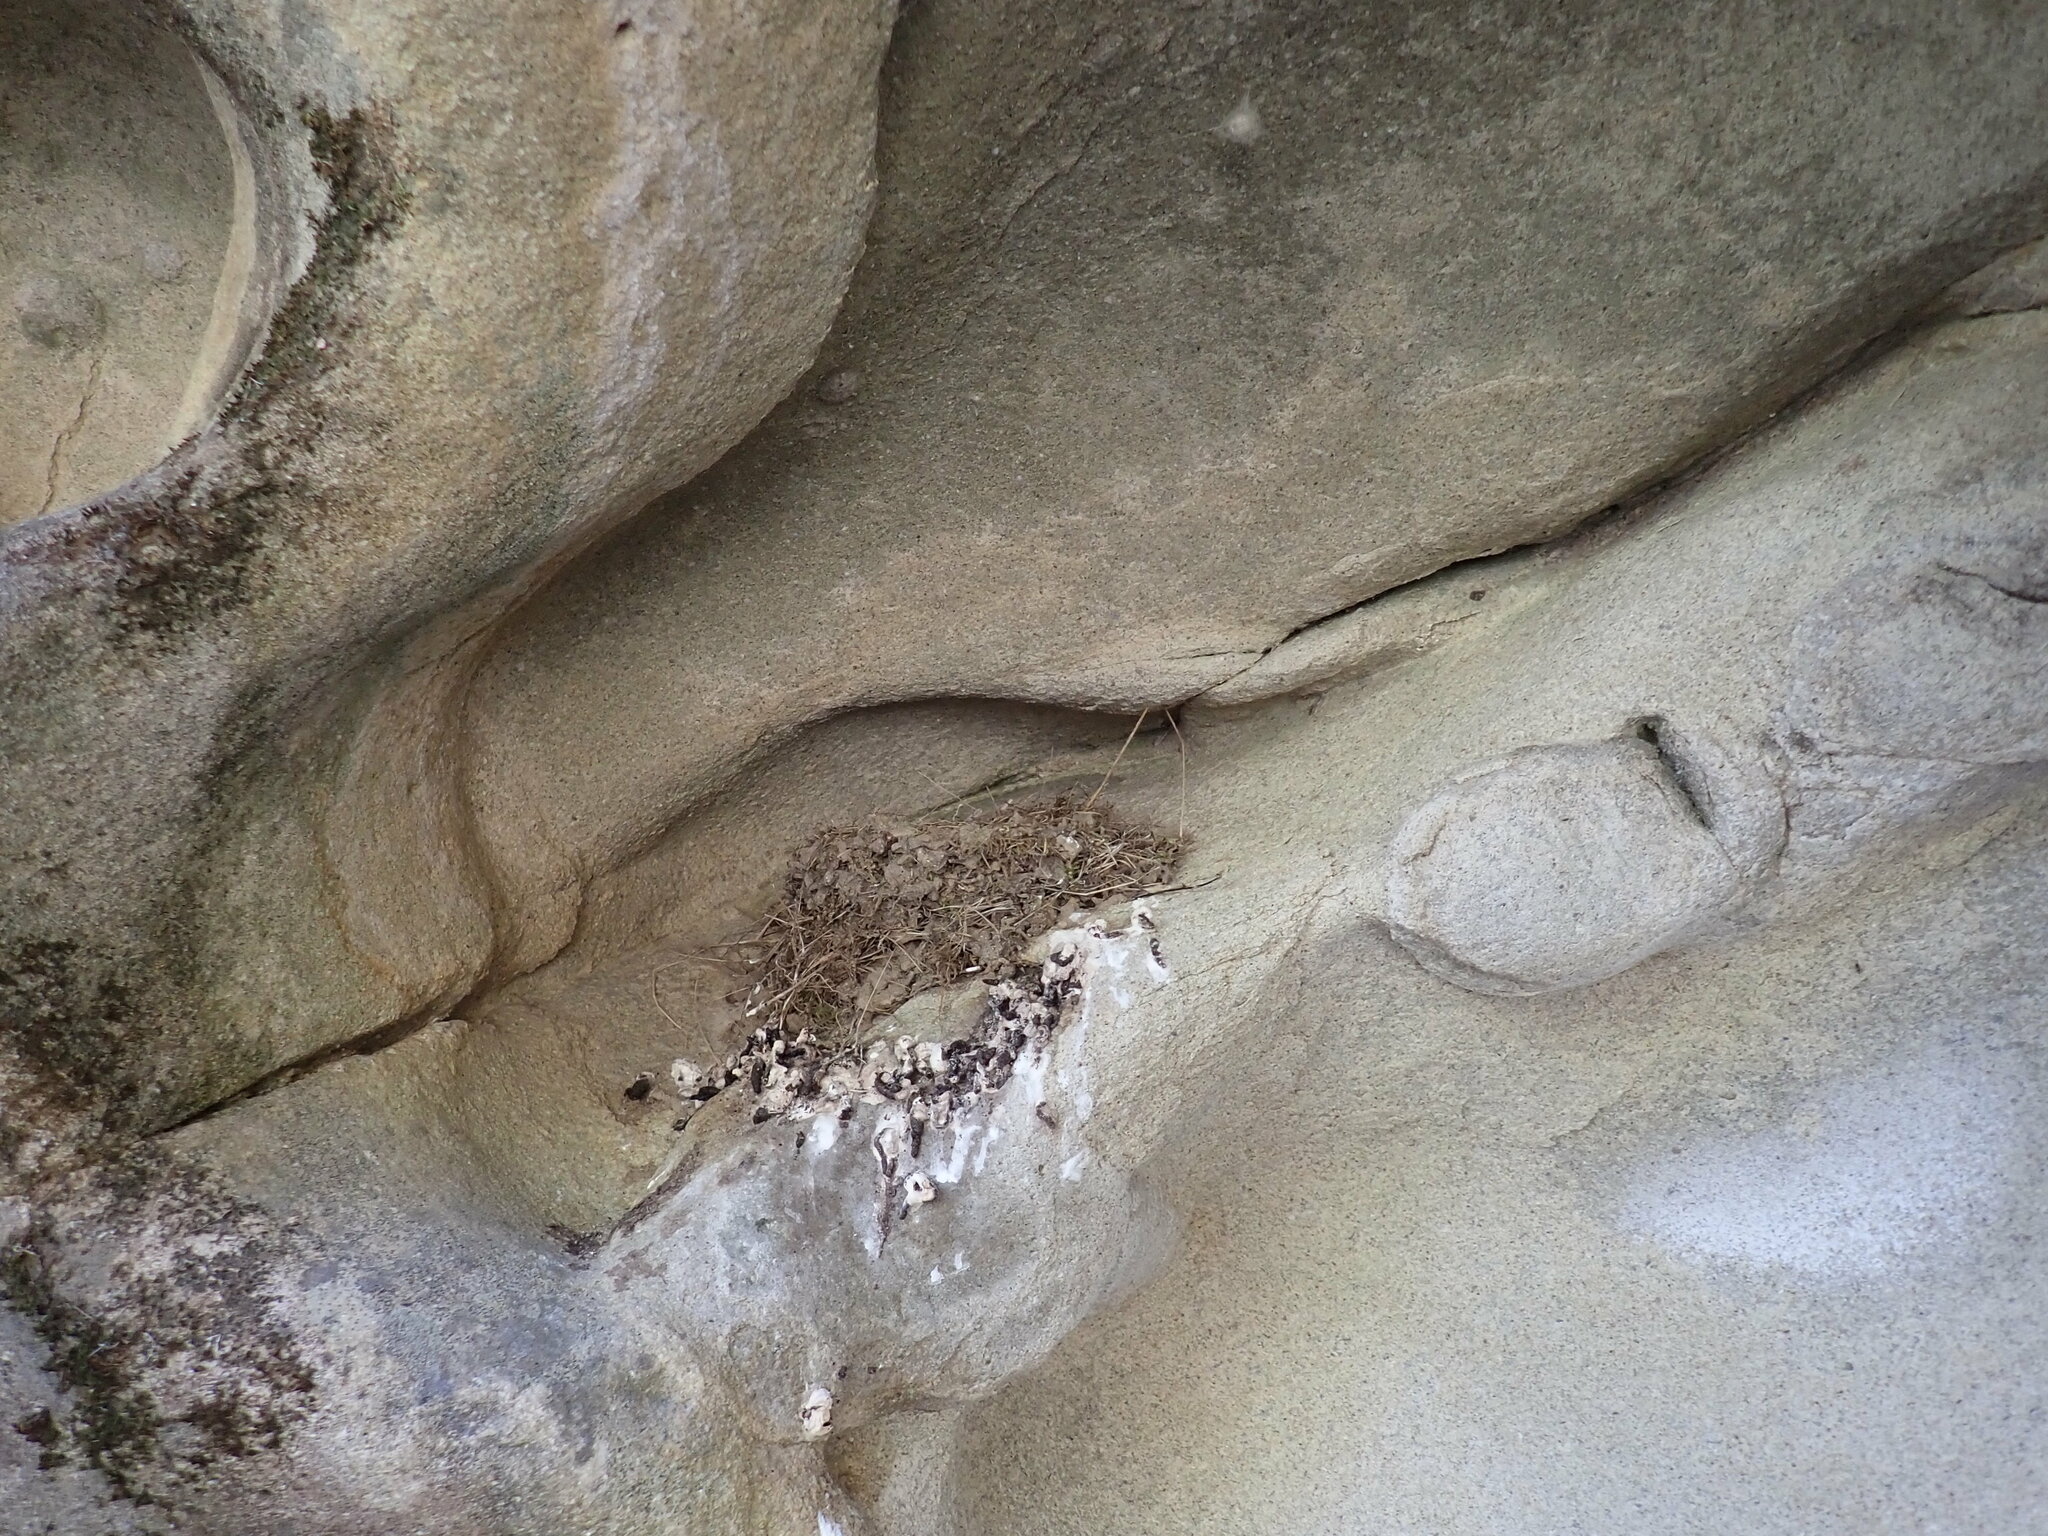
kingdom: Animalia
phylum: Chordata
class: Aves
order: Passeriformes
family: Tyrannidae
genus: Sayornis
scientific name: Sayornis nigricans
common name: Black phoebe
